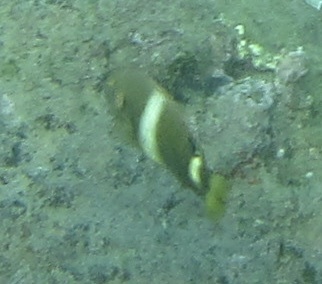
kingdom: Animalia
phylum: Chordata
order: Perciformes
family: Pomacentridae
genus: Chrysiptera
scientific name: Chrysiptera brownriggii
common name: Surge demoiselle
